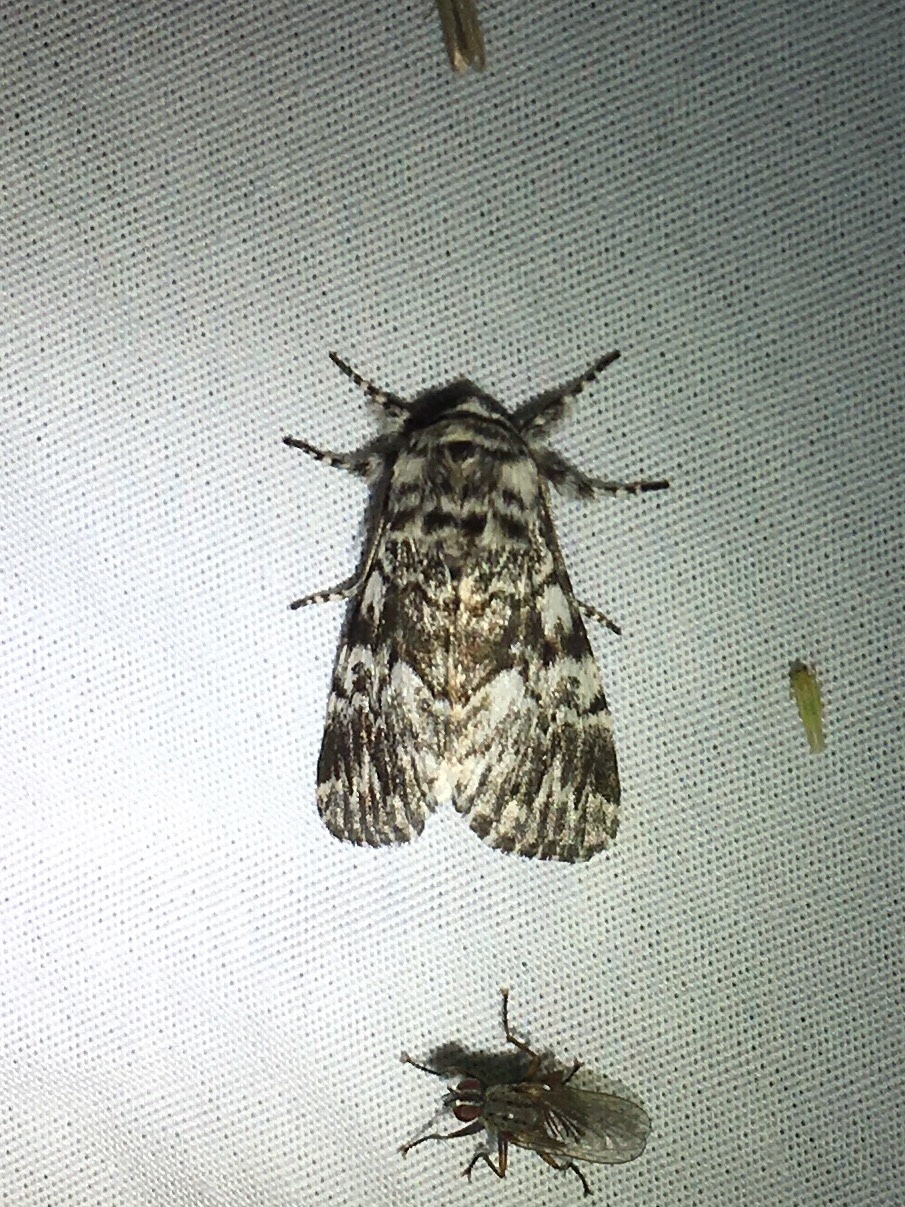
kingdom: Animalia
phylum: Arthropoda
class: Insecta
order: Lepidoptera
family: Noctuidae
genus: Panthea
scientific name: Panthea acronyctoides
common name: Black zigzag moth
